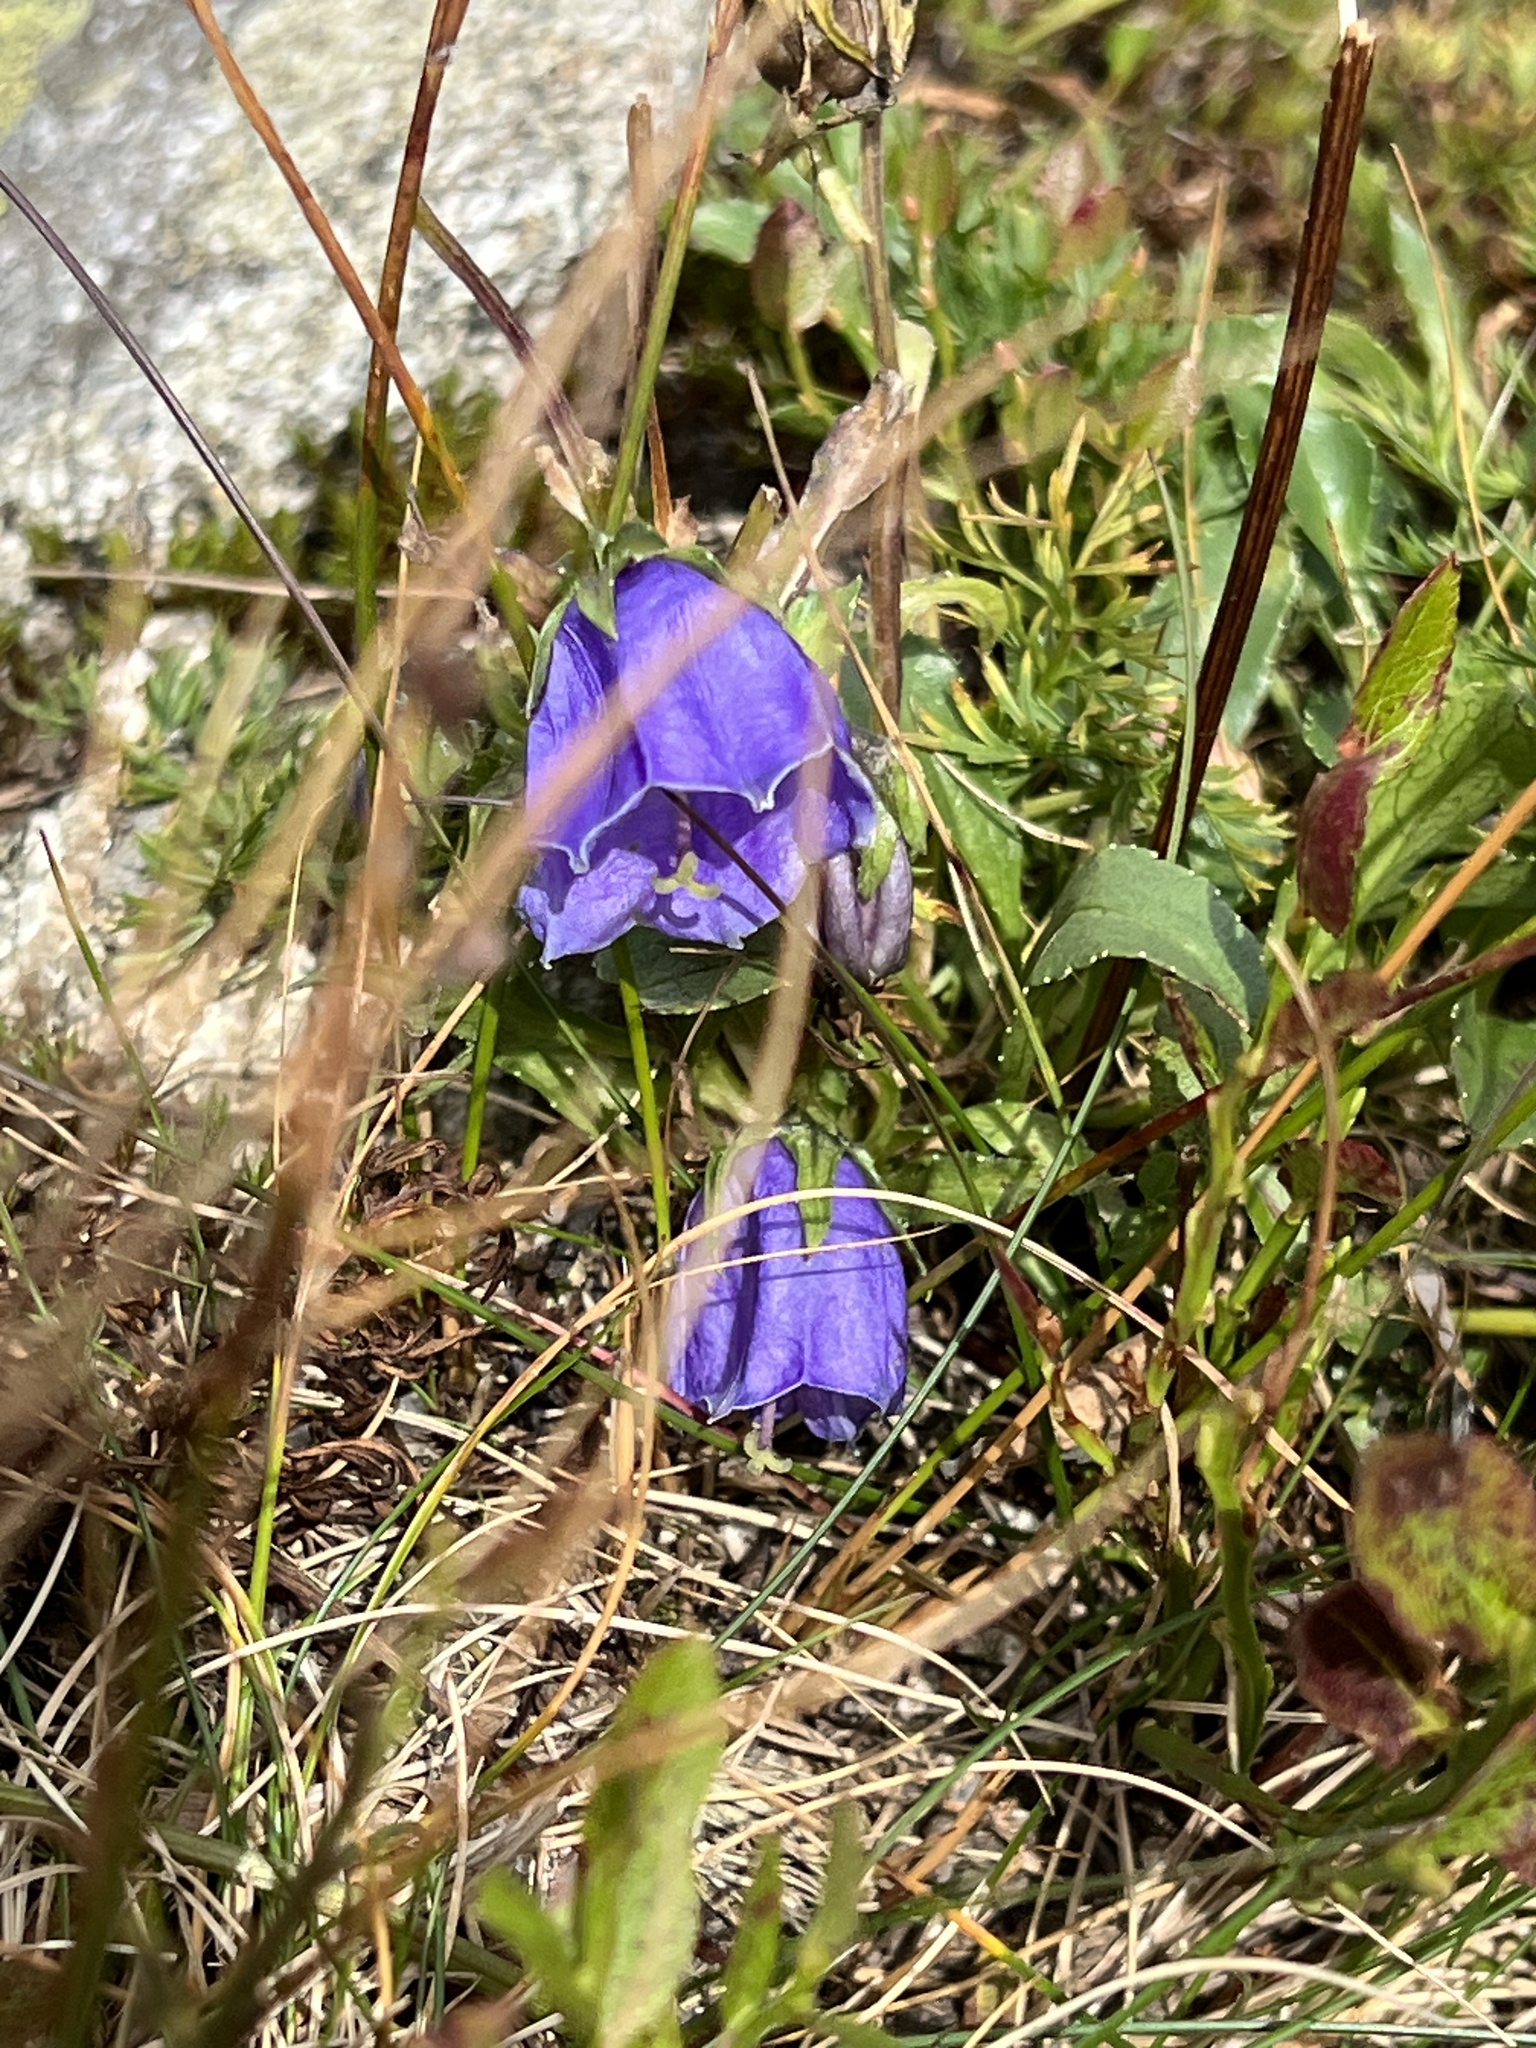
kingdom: Plantae
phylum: Tracheophyta
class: Magnoliopsida
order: Asterales
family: Campanulaceae
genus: Campanula
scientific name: Campanula alpina
